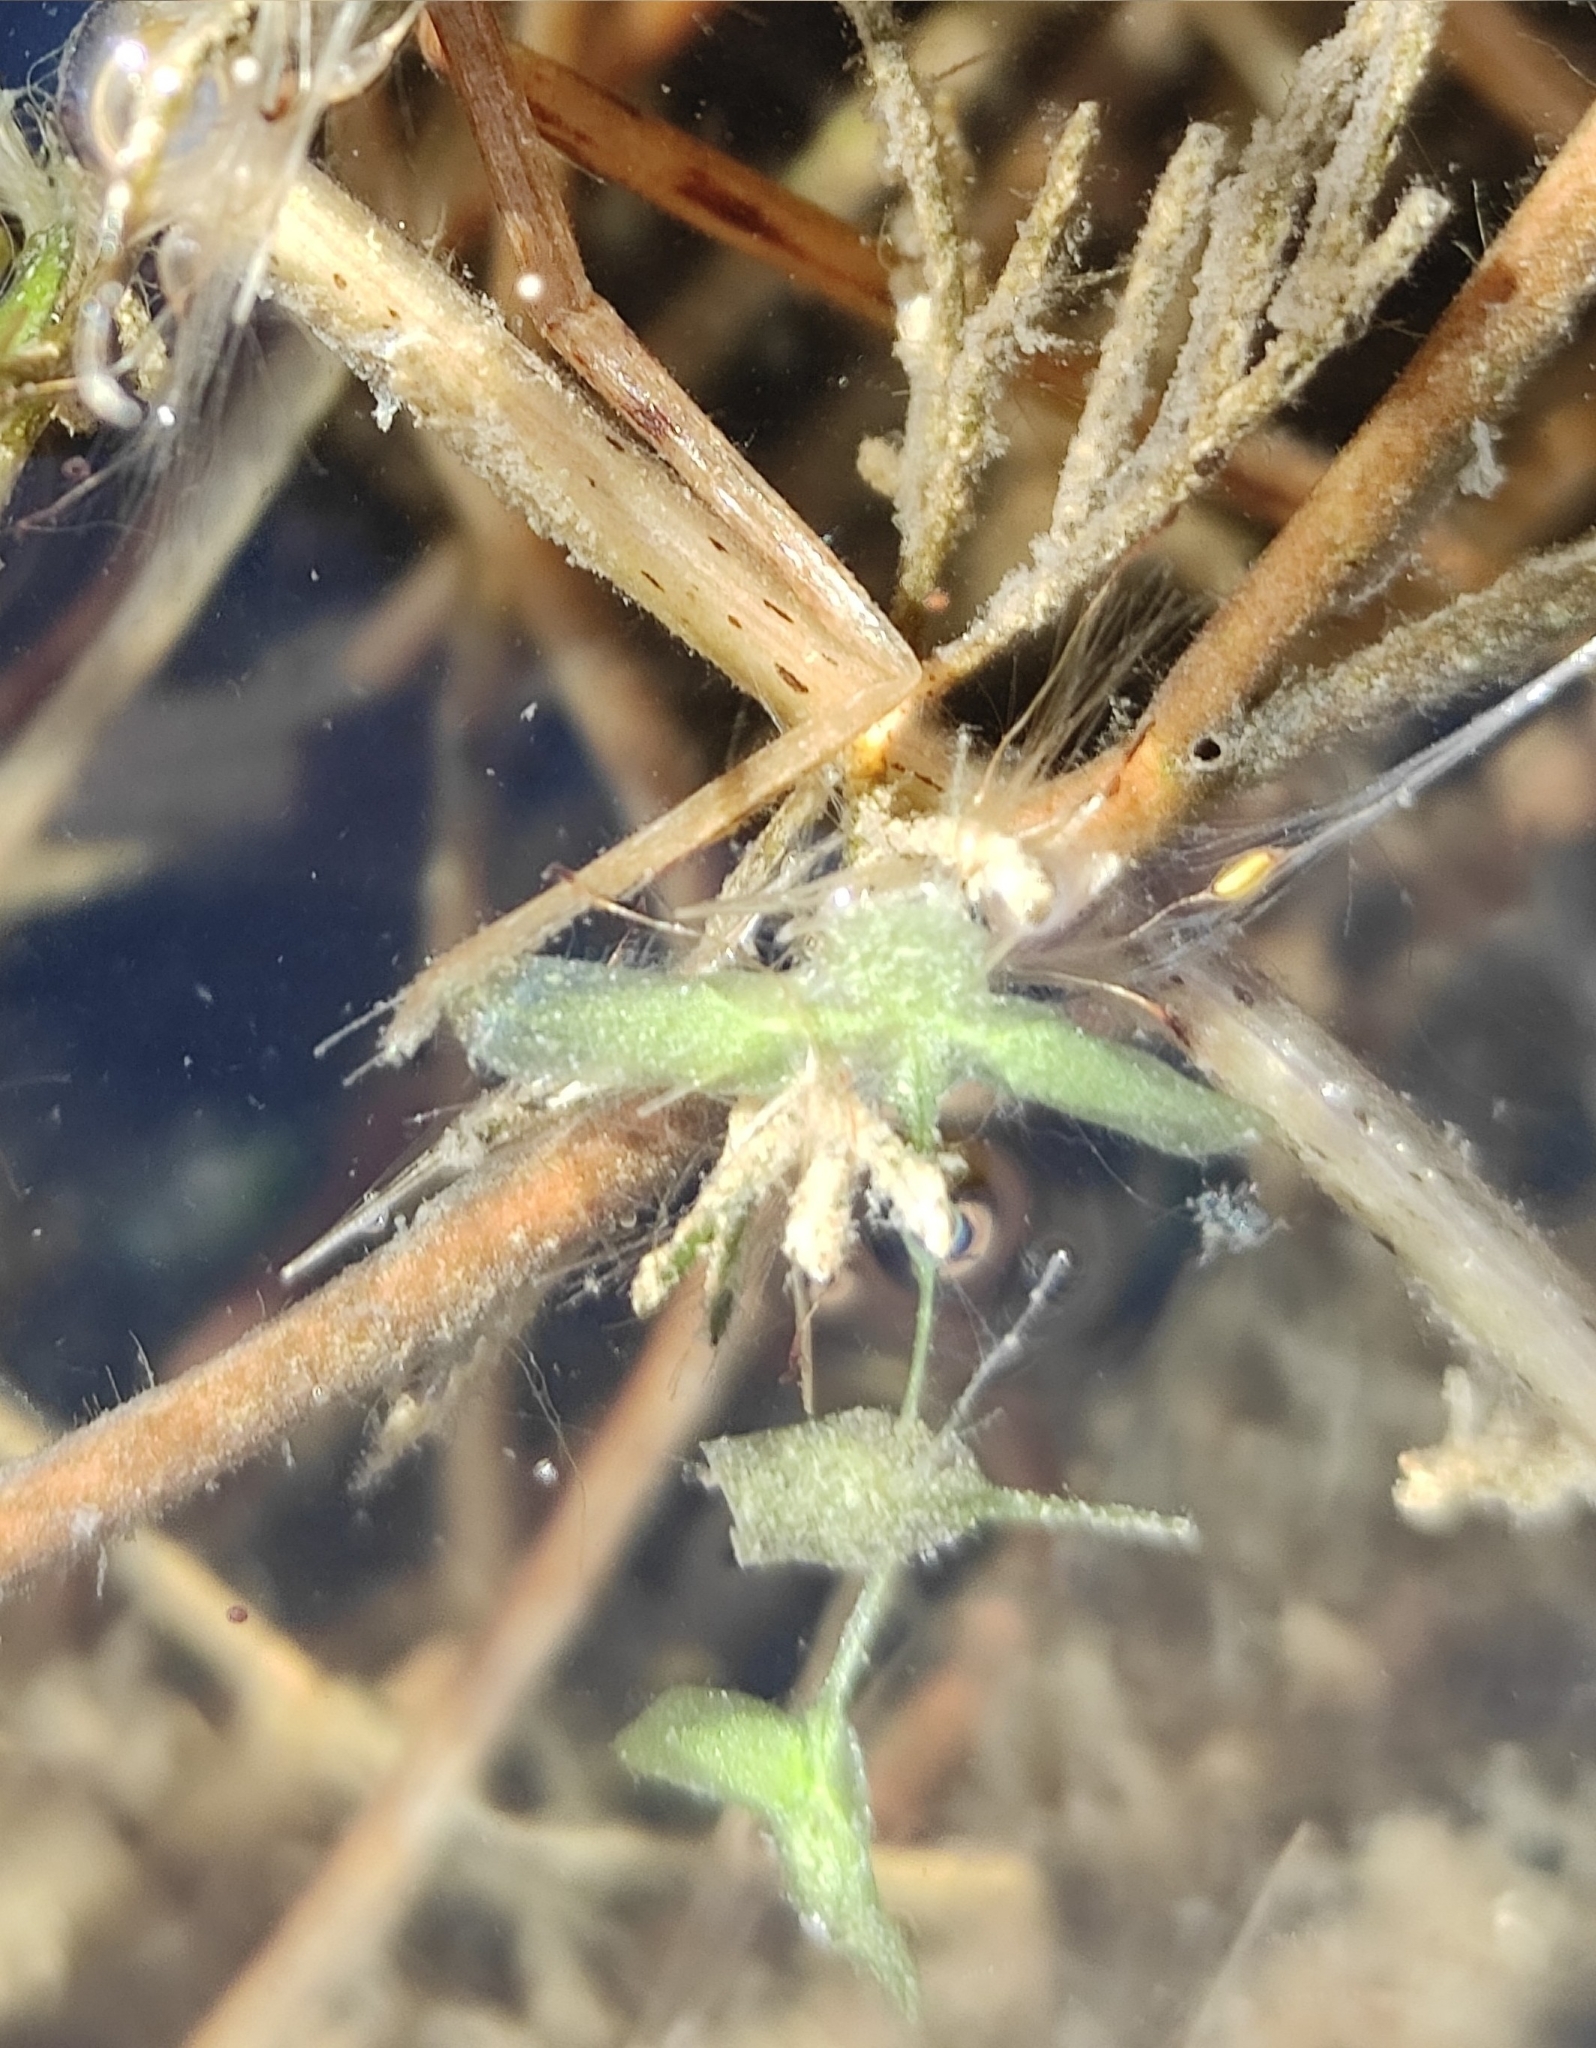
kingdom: Plantae
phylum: Tracheophyta
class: Liliopsida
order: Alismatales
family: Araceae
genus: Lemna
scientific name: Lemna trisulca
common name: Ivy-leaved duckweed
